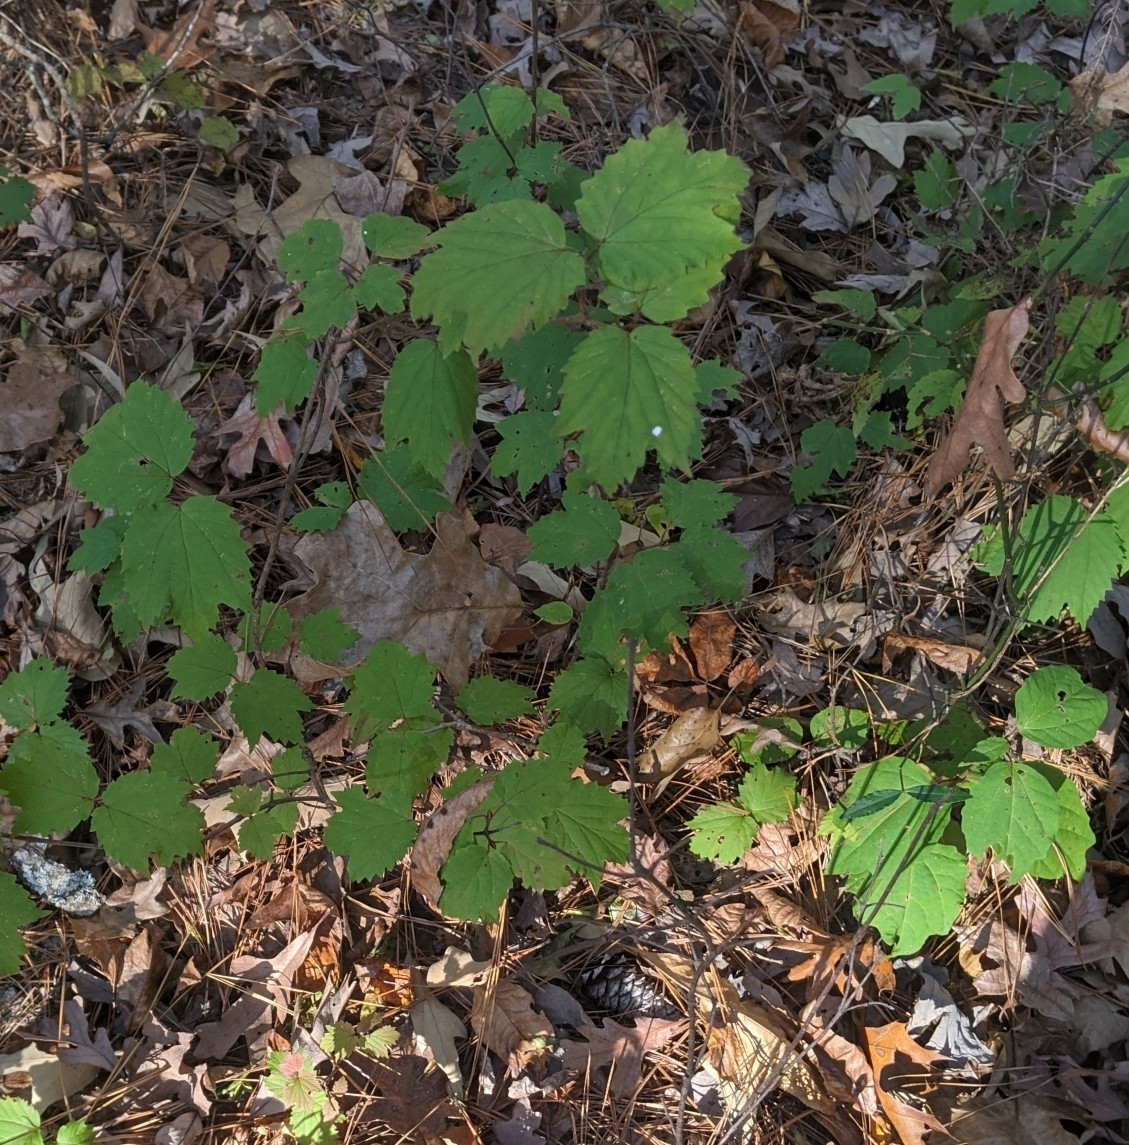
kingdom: Plantae
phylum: Tracheophyta
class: Magnoliopsida
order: Dipsacales
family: Viburnaceae
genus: Viburnum
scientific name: Viburnum acerifolium
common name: Dockmackie
